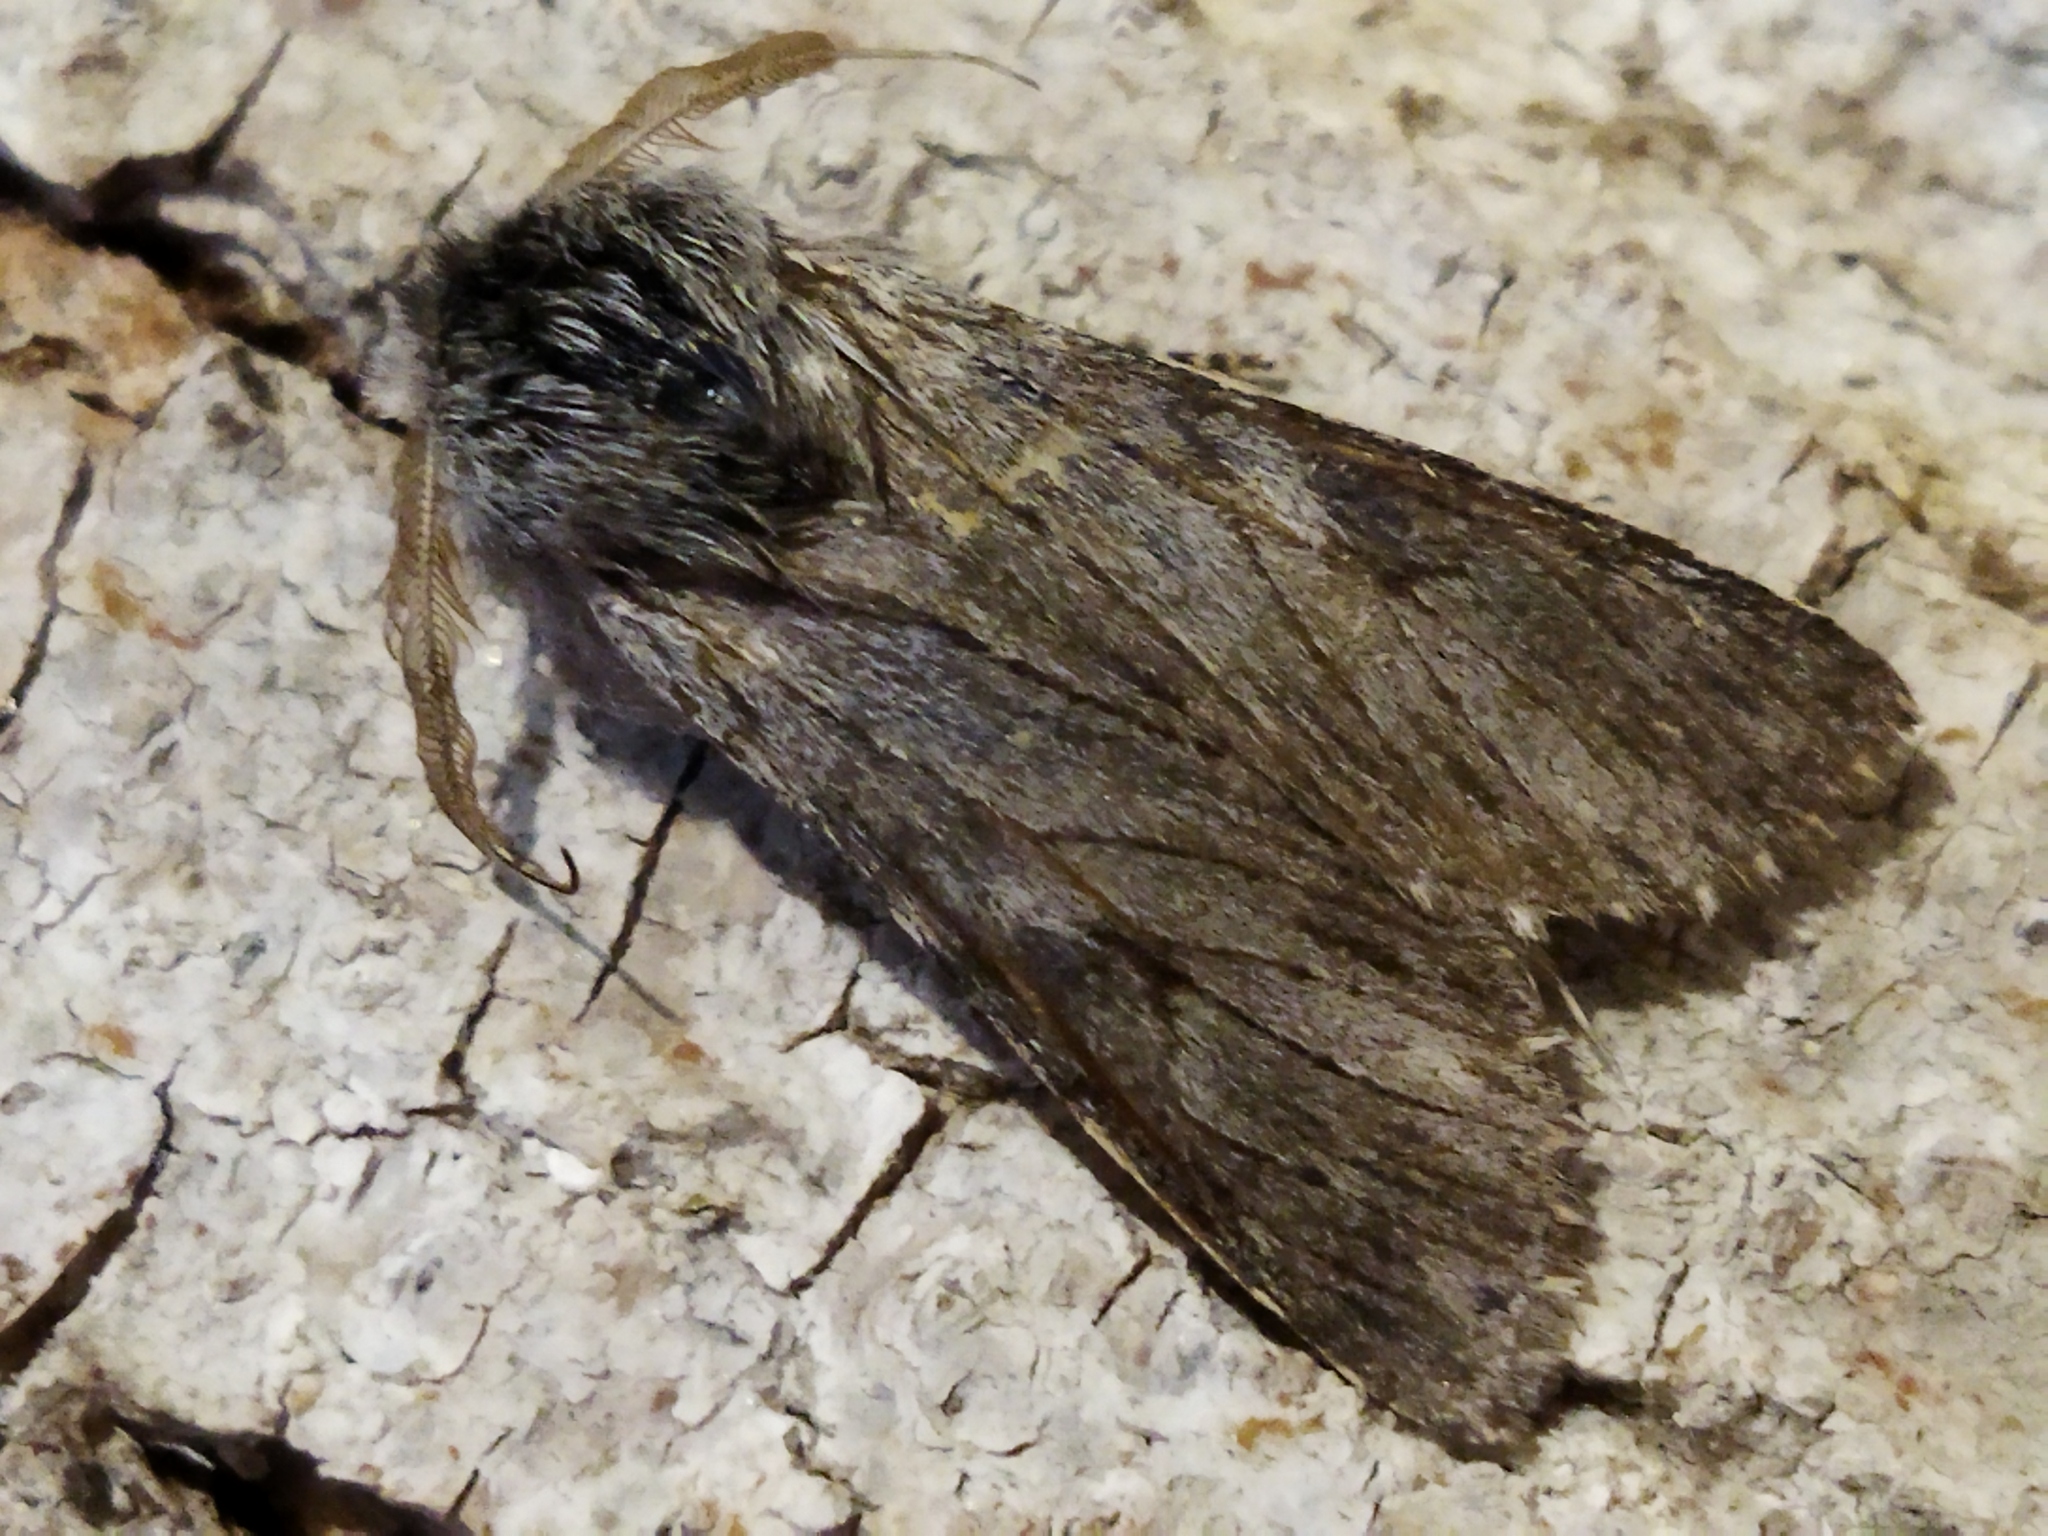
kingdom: Animalia
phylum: Arthropoda
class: Insecta
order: Lepidoptera
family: Notodontidae
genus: Dicranura
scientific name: Dicranura ulmi
